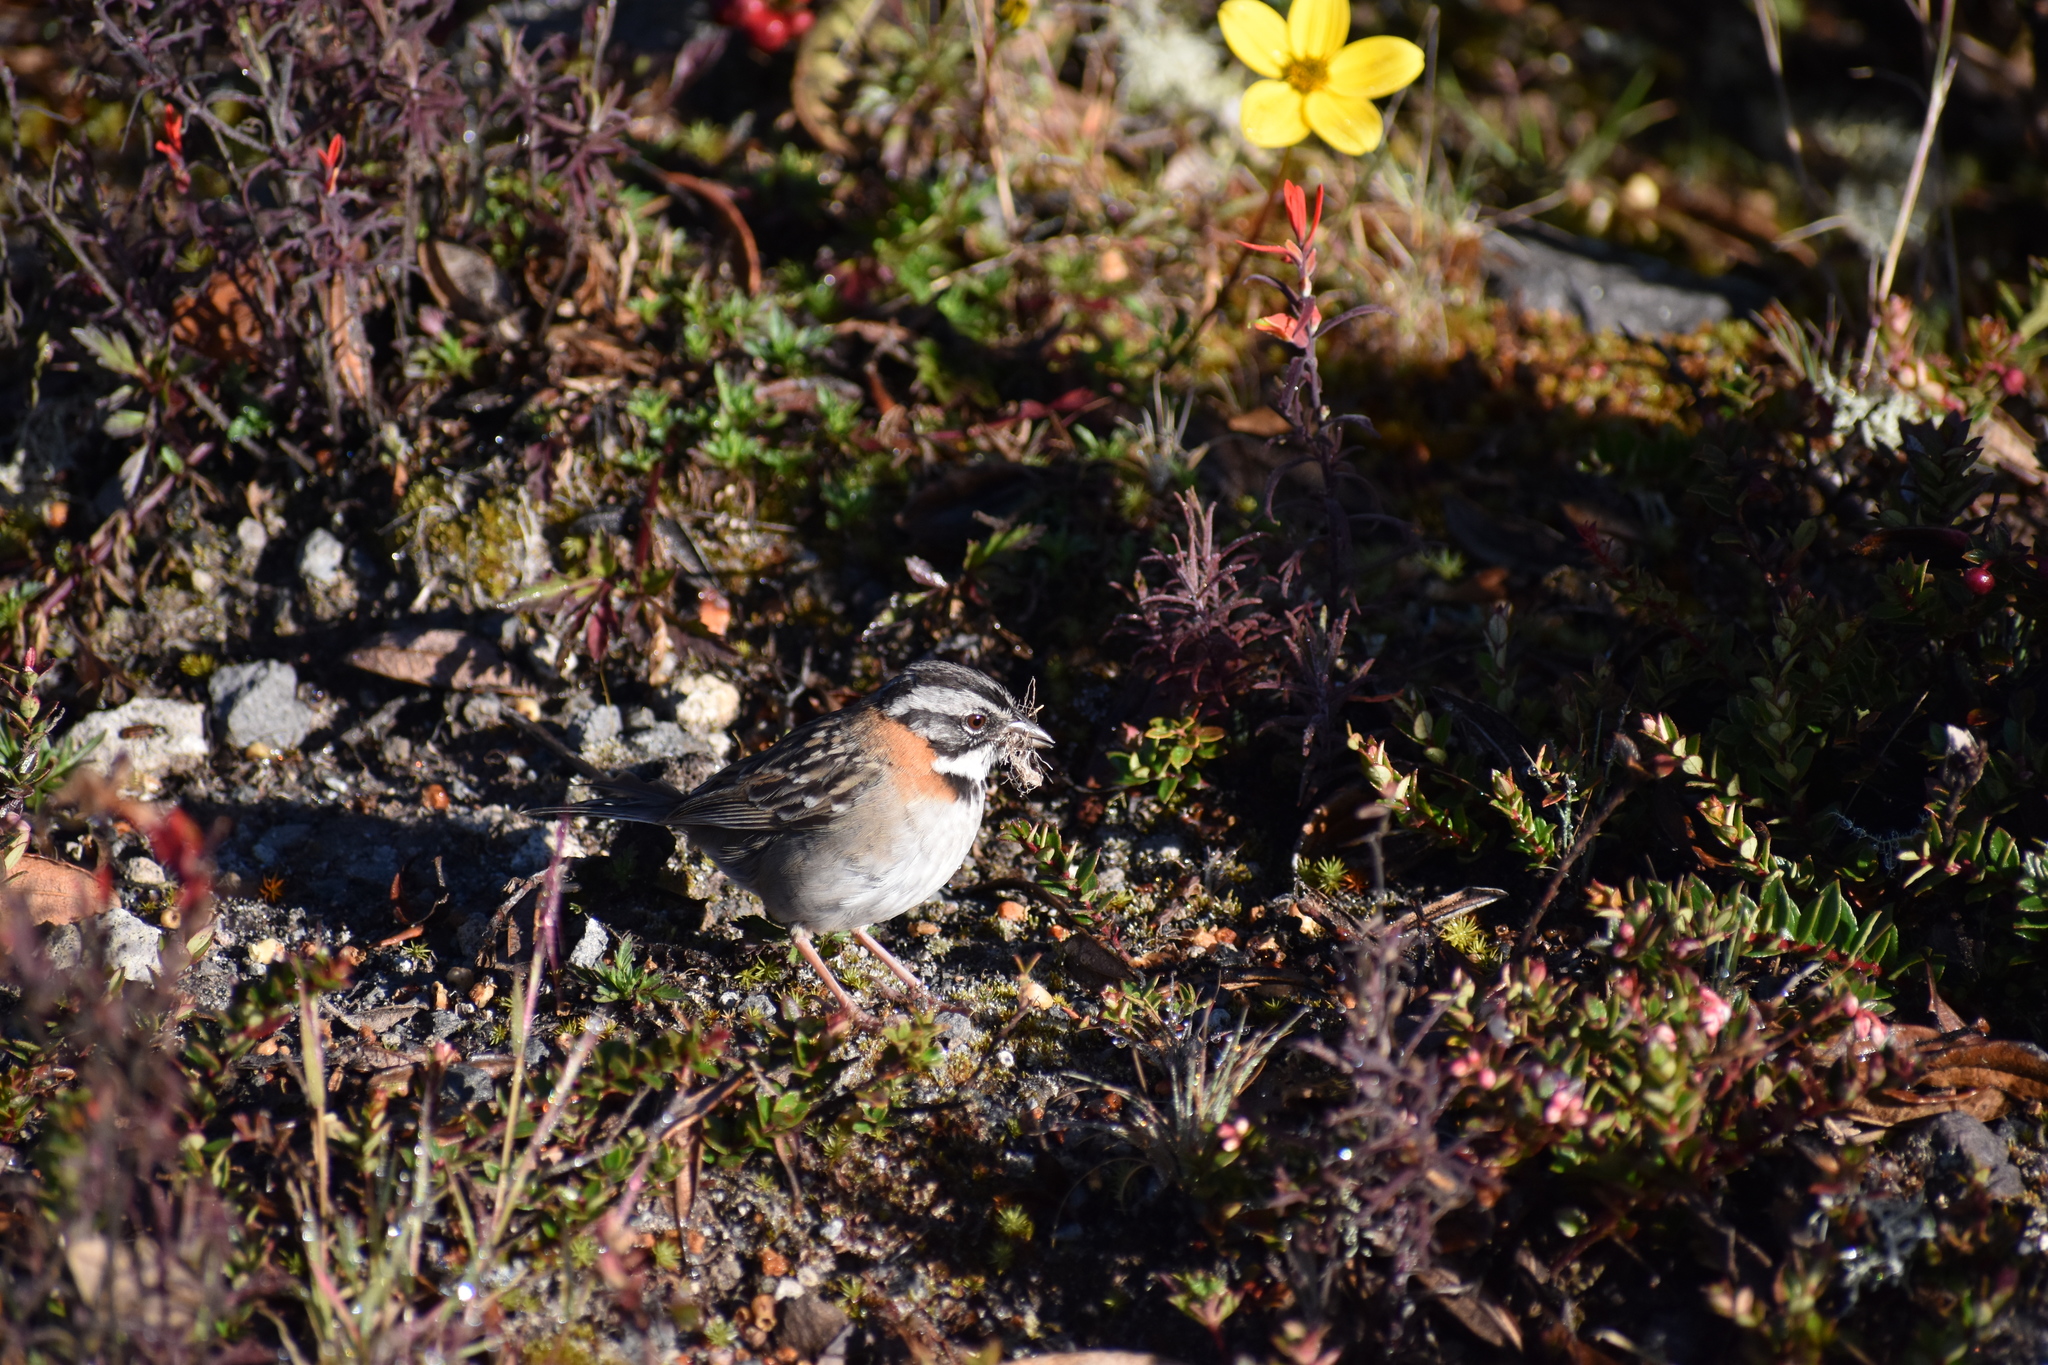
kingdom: Animalia
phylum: Chordata
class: Aves
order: Passeriformes
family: Passerellidae
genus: Zonotrichia
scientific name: Zonotrichia capensis
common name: Rufous-collared sparrow
